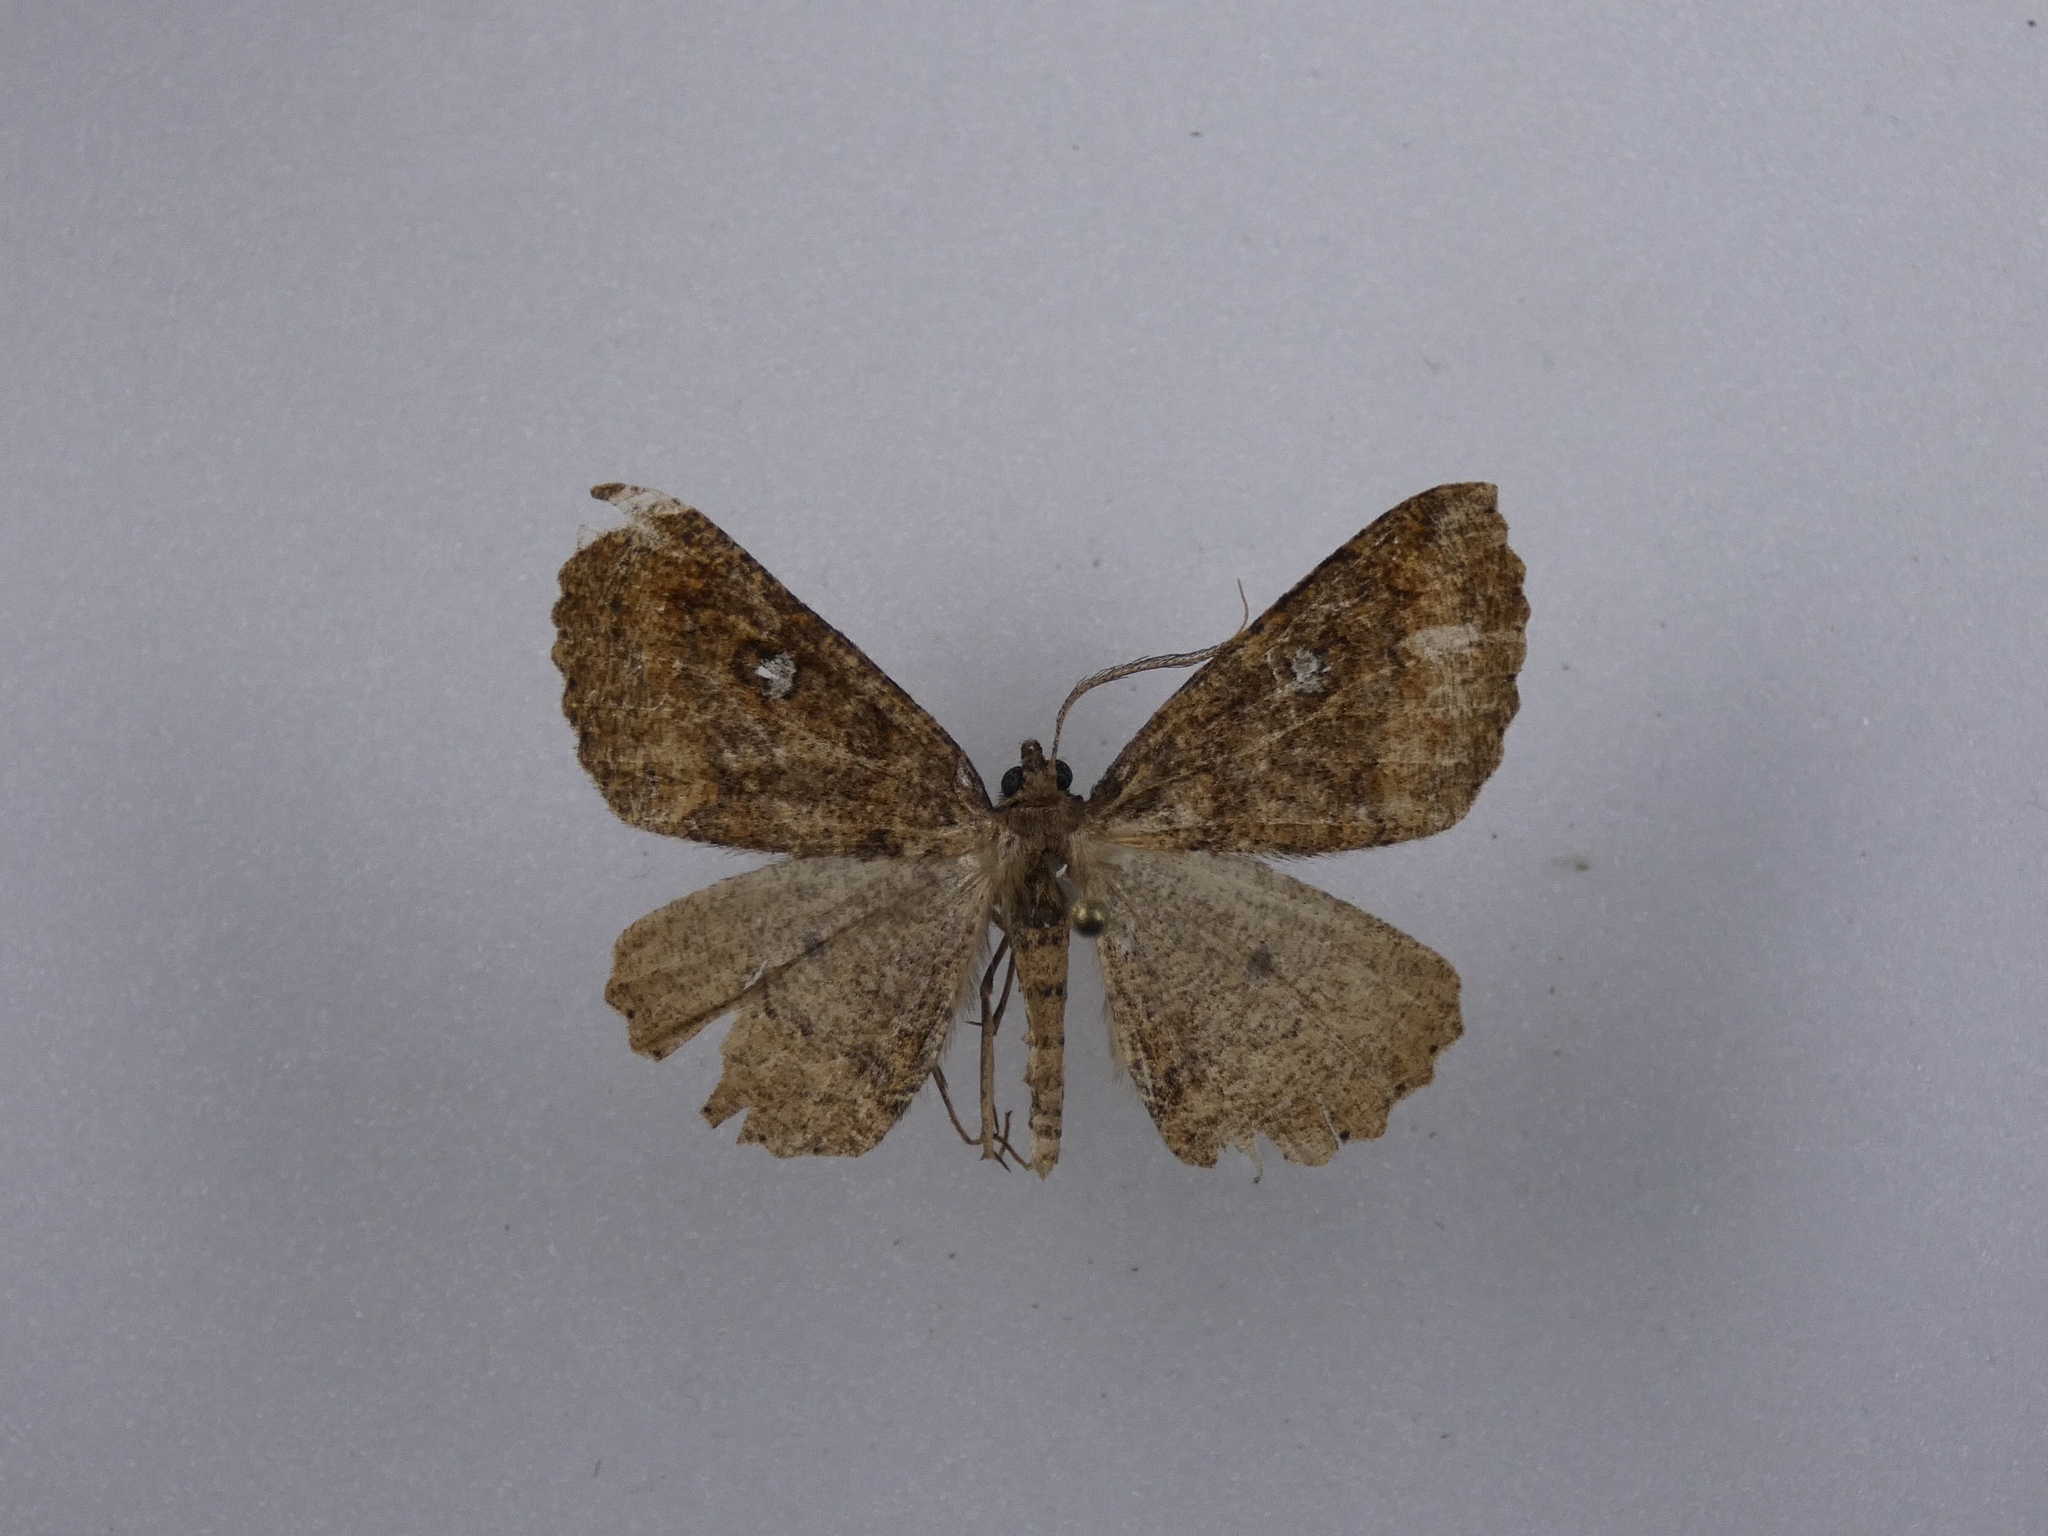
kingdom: Animalia
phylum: Arthropoda
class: Insecta
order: Lepidoptera
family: Geometridae
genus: Cleora
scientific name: Cleora scriptaria
